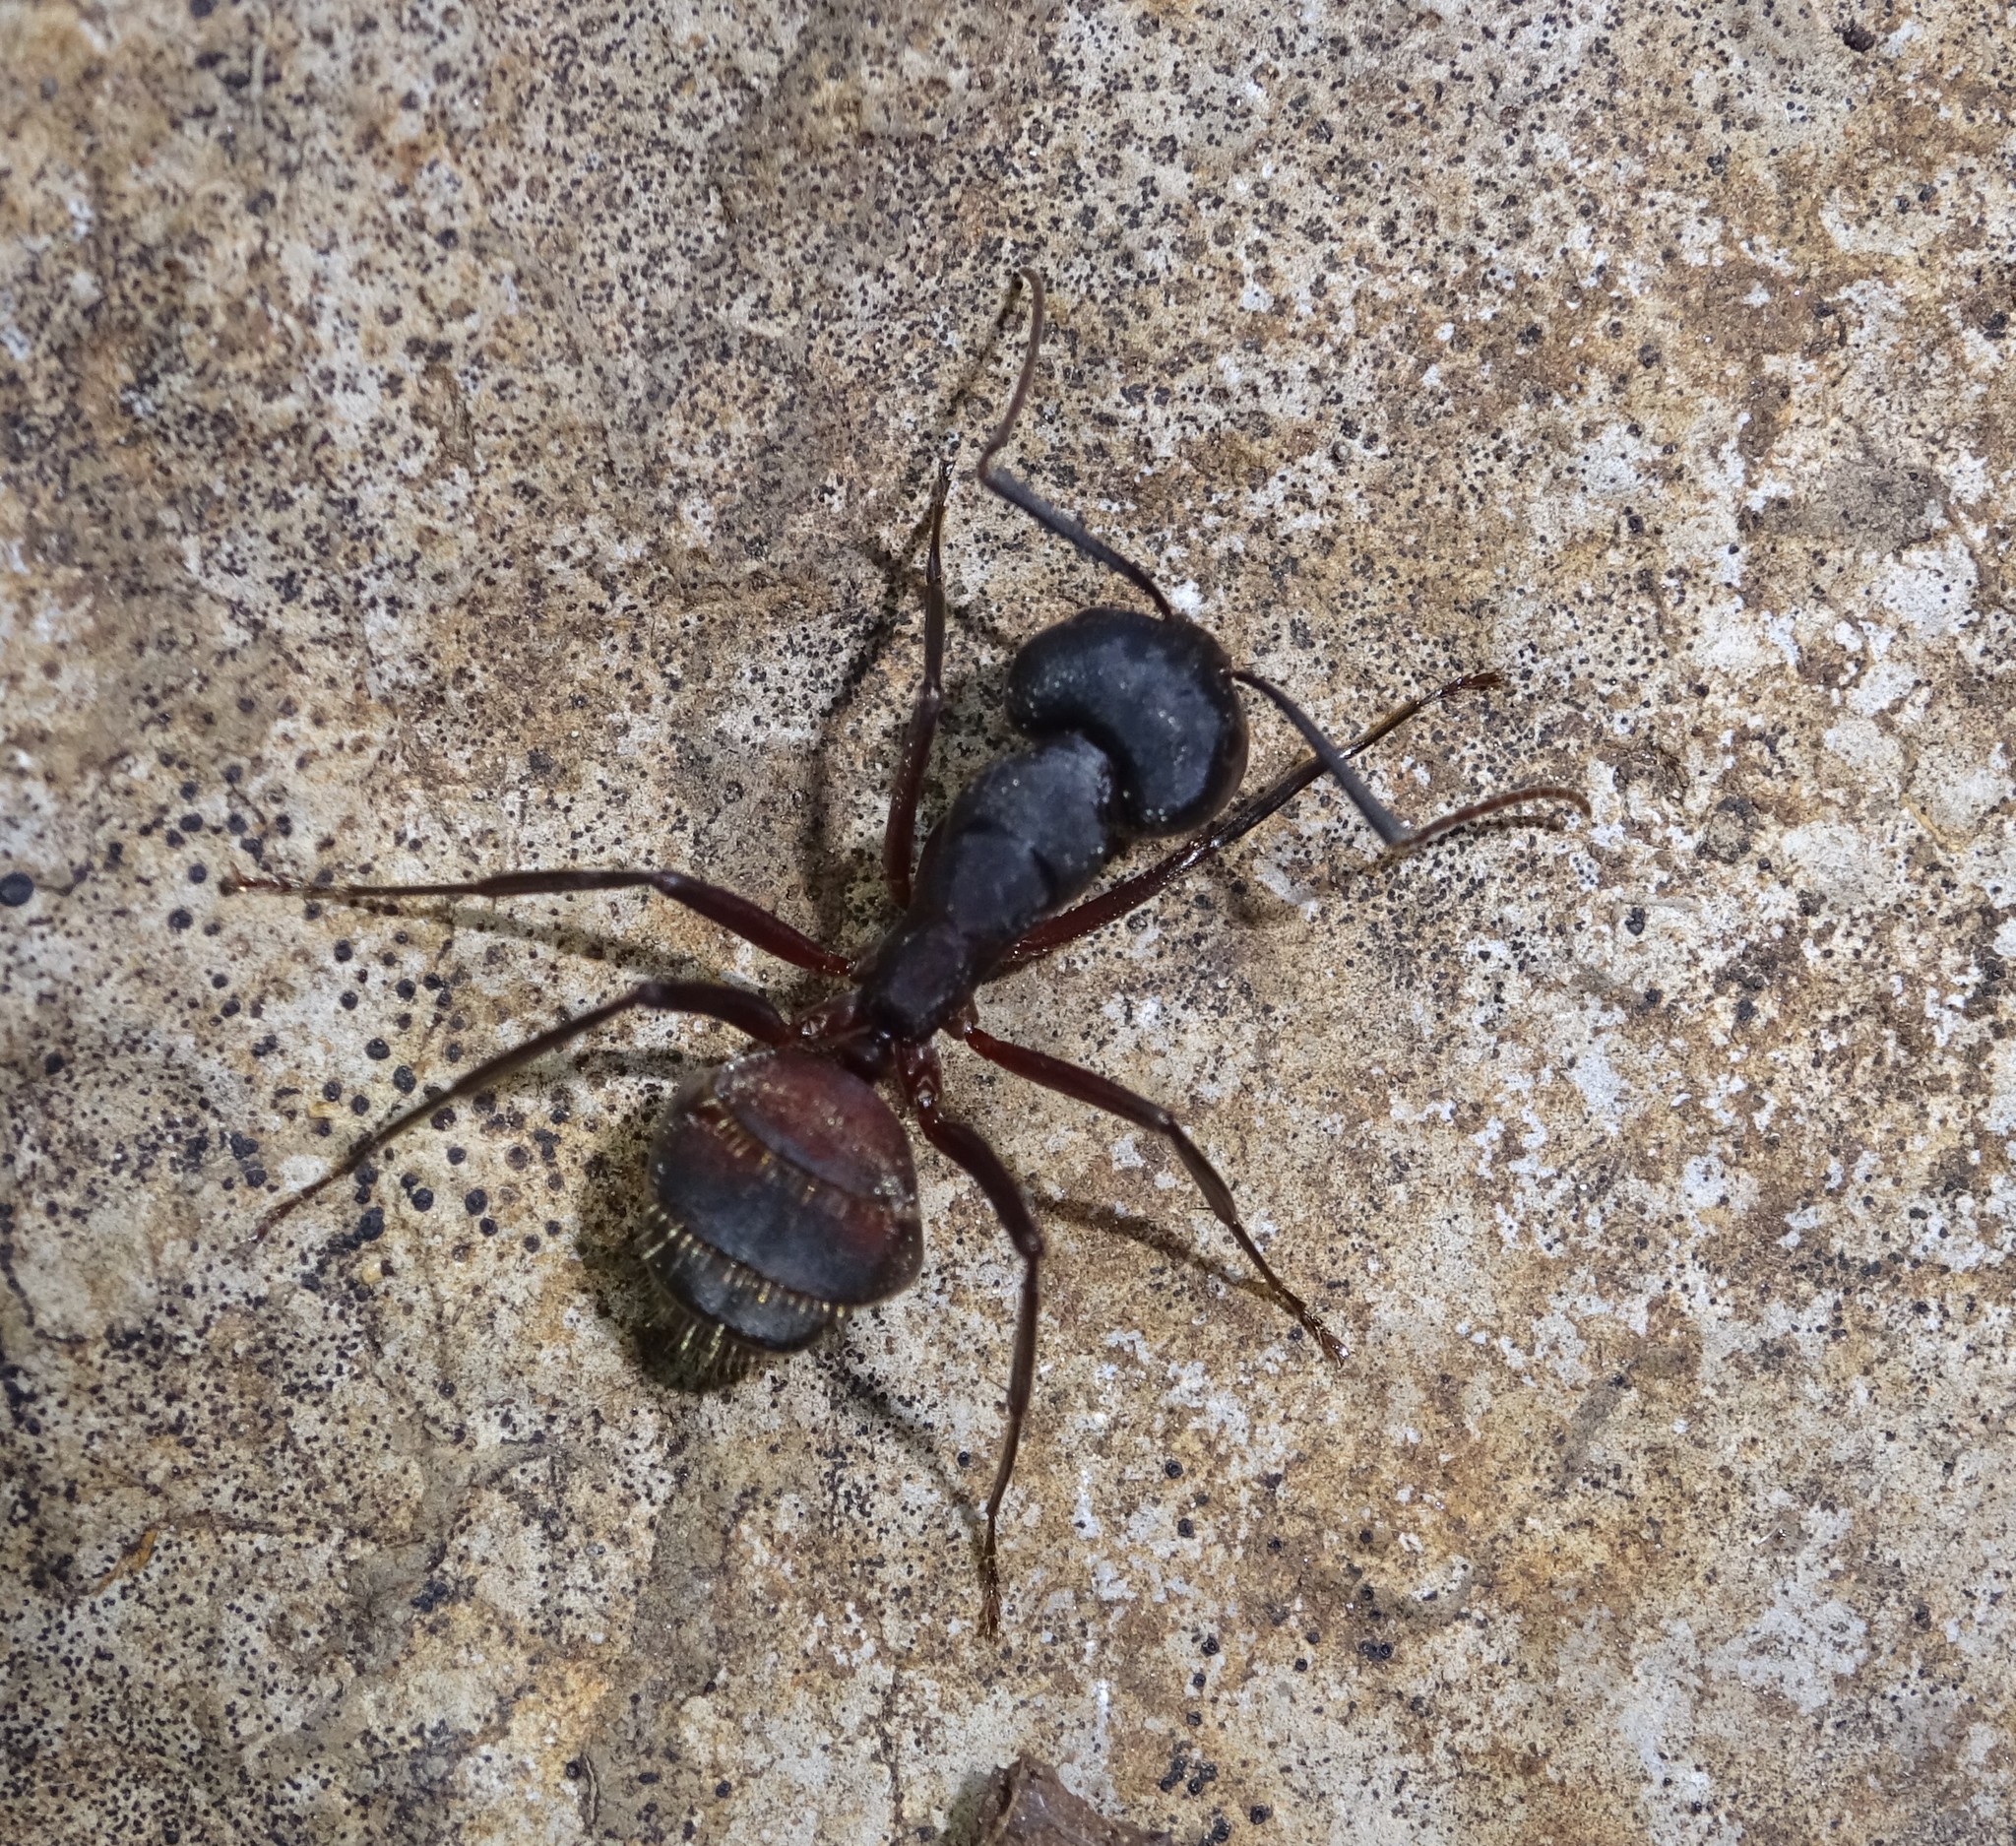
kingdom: Animalia
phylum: Arthropoda
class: Insecta
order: Hymenoptera
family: Formicidae
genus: Camponotus
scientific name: Camponotus cruentatus
